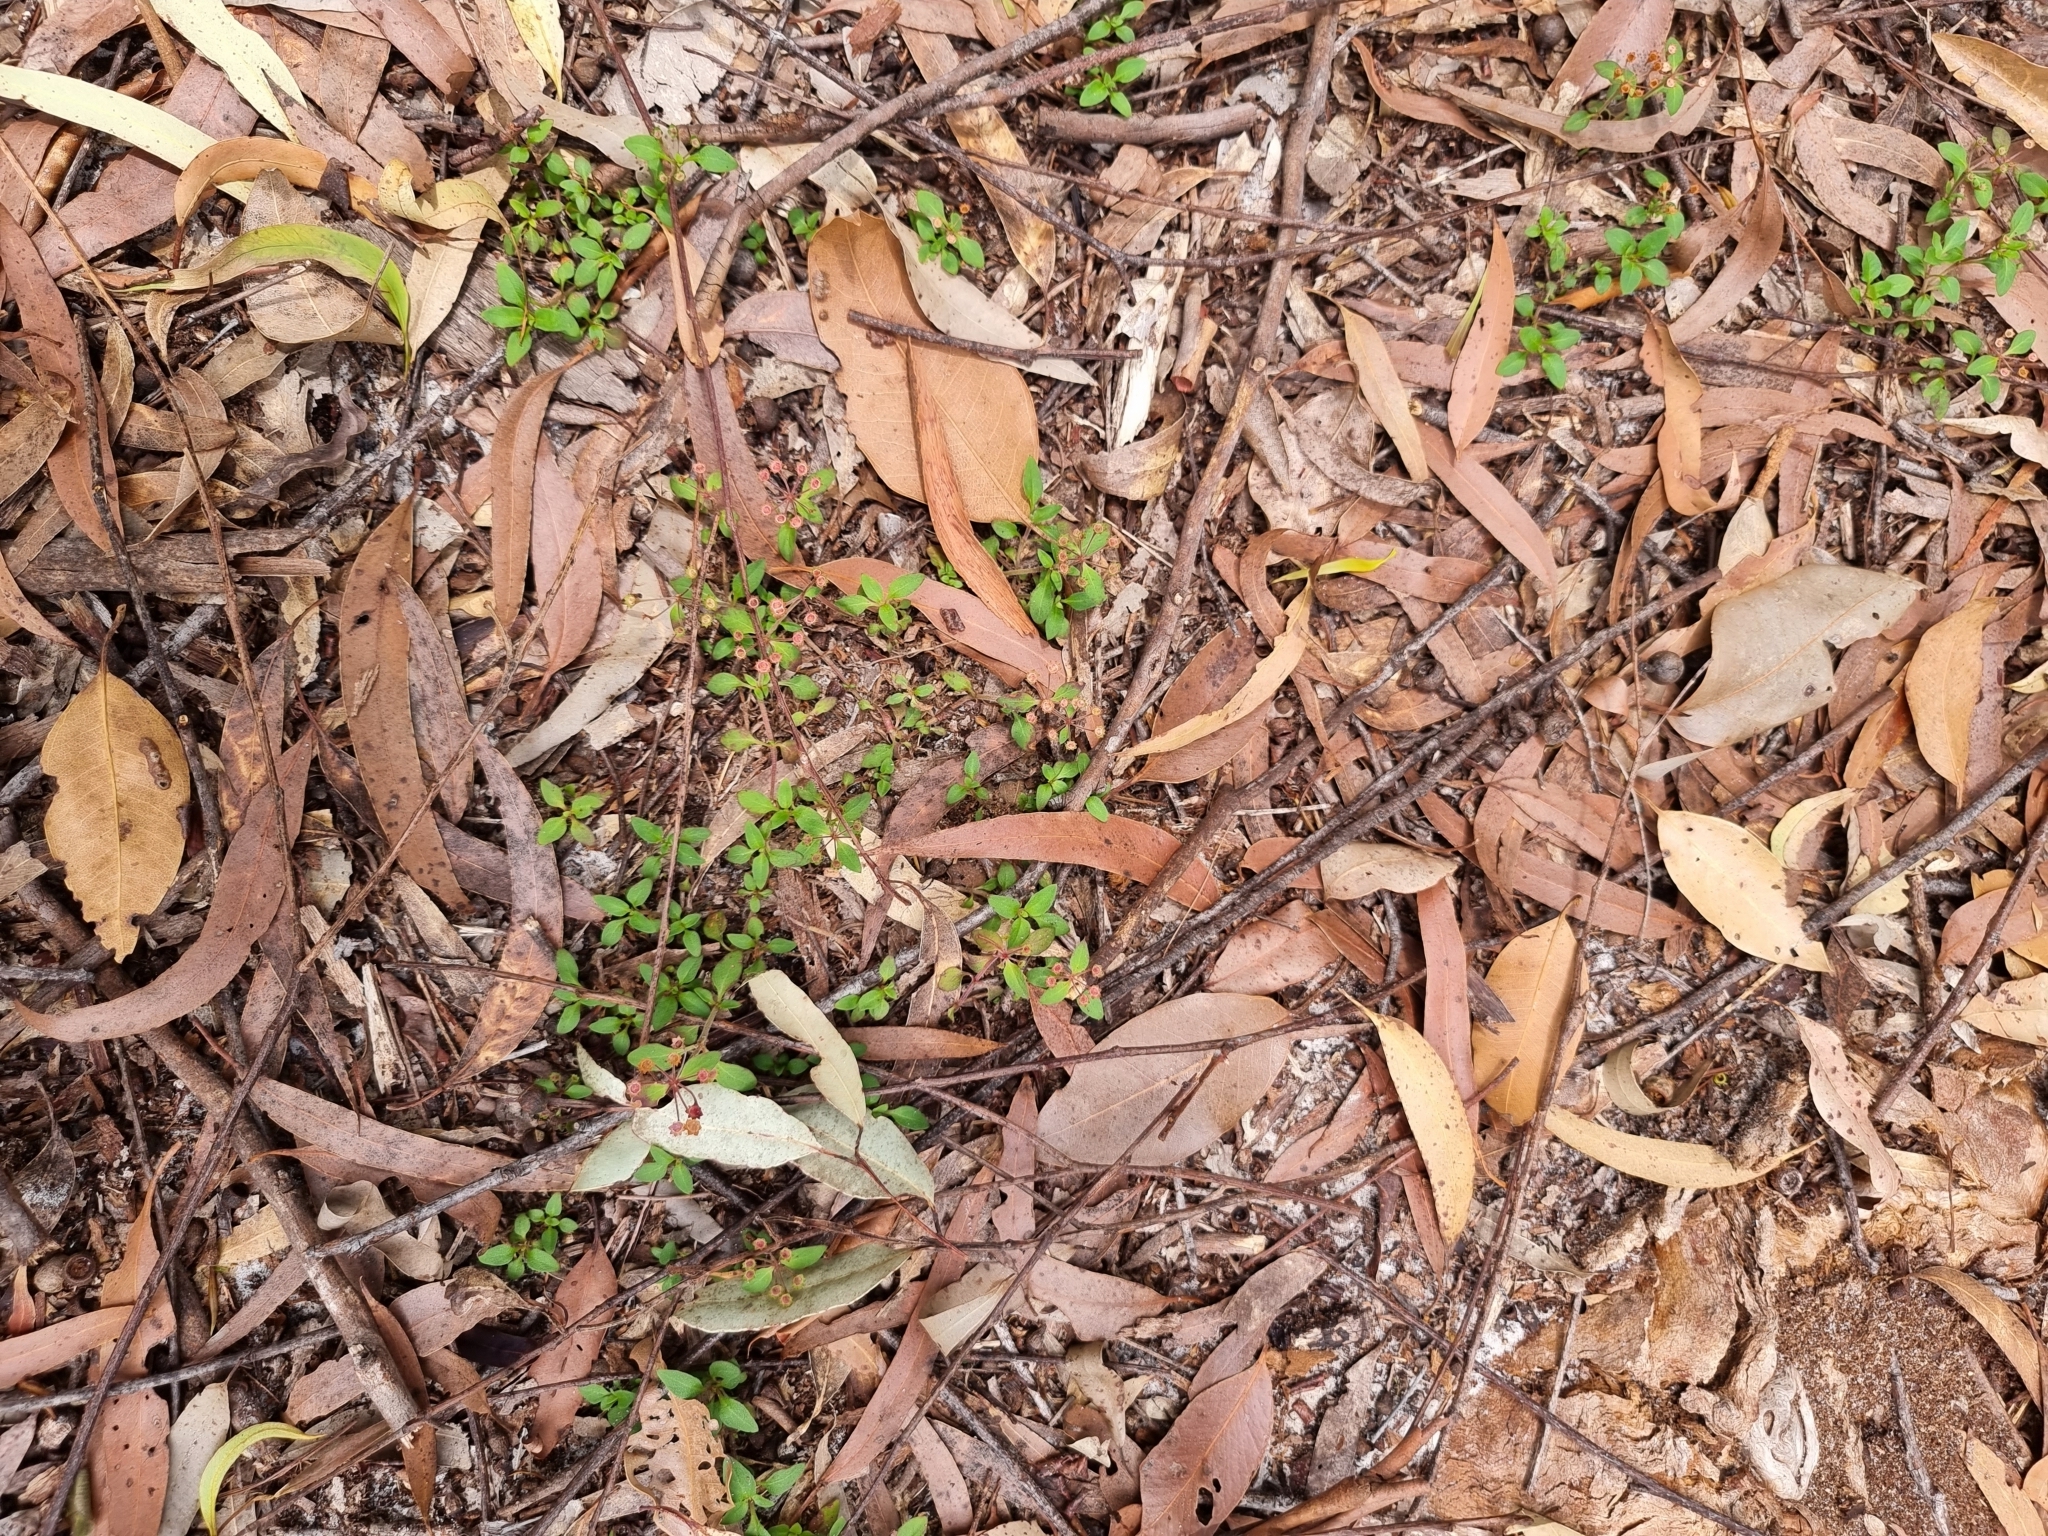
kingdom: Plantae
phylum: Tracheophyta
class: Magnoliopsida
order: Gentianales
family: Rubiaceae
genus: Pomax
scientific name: Pomax umbellata
